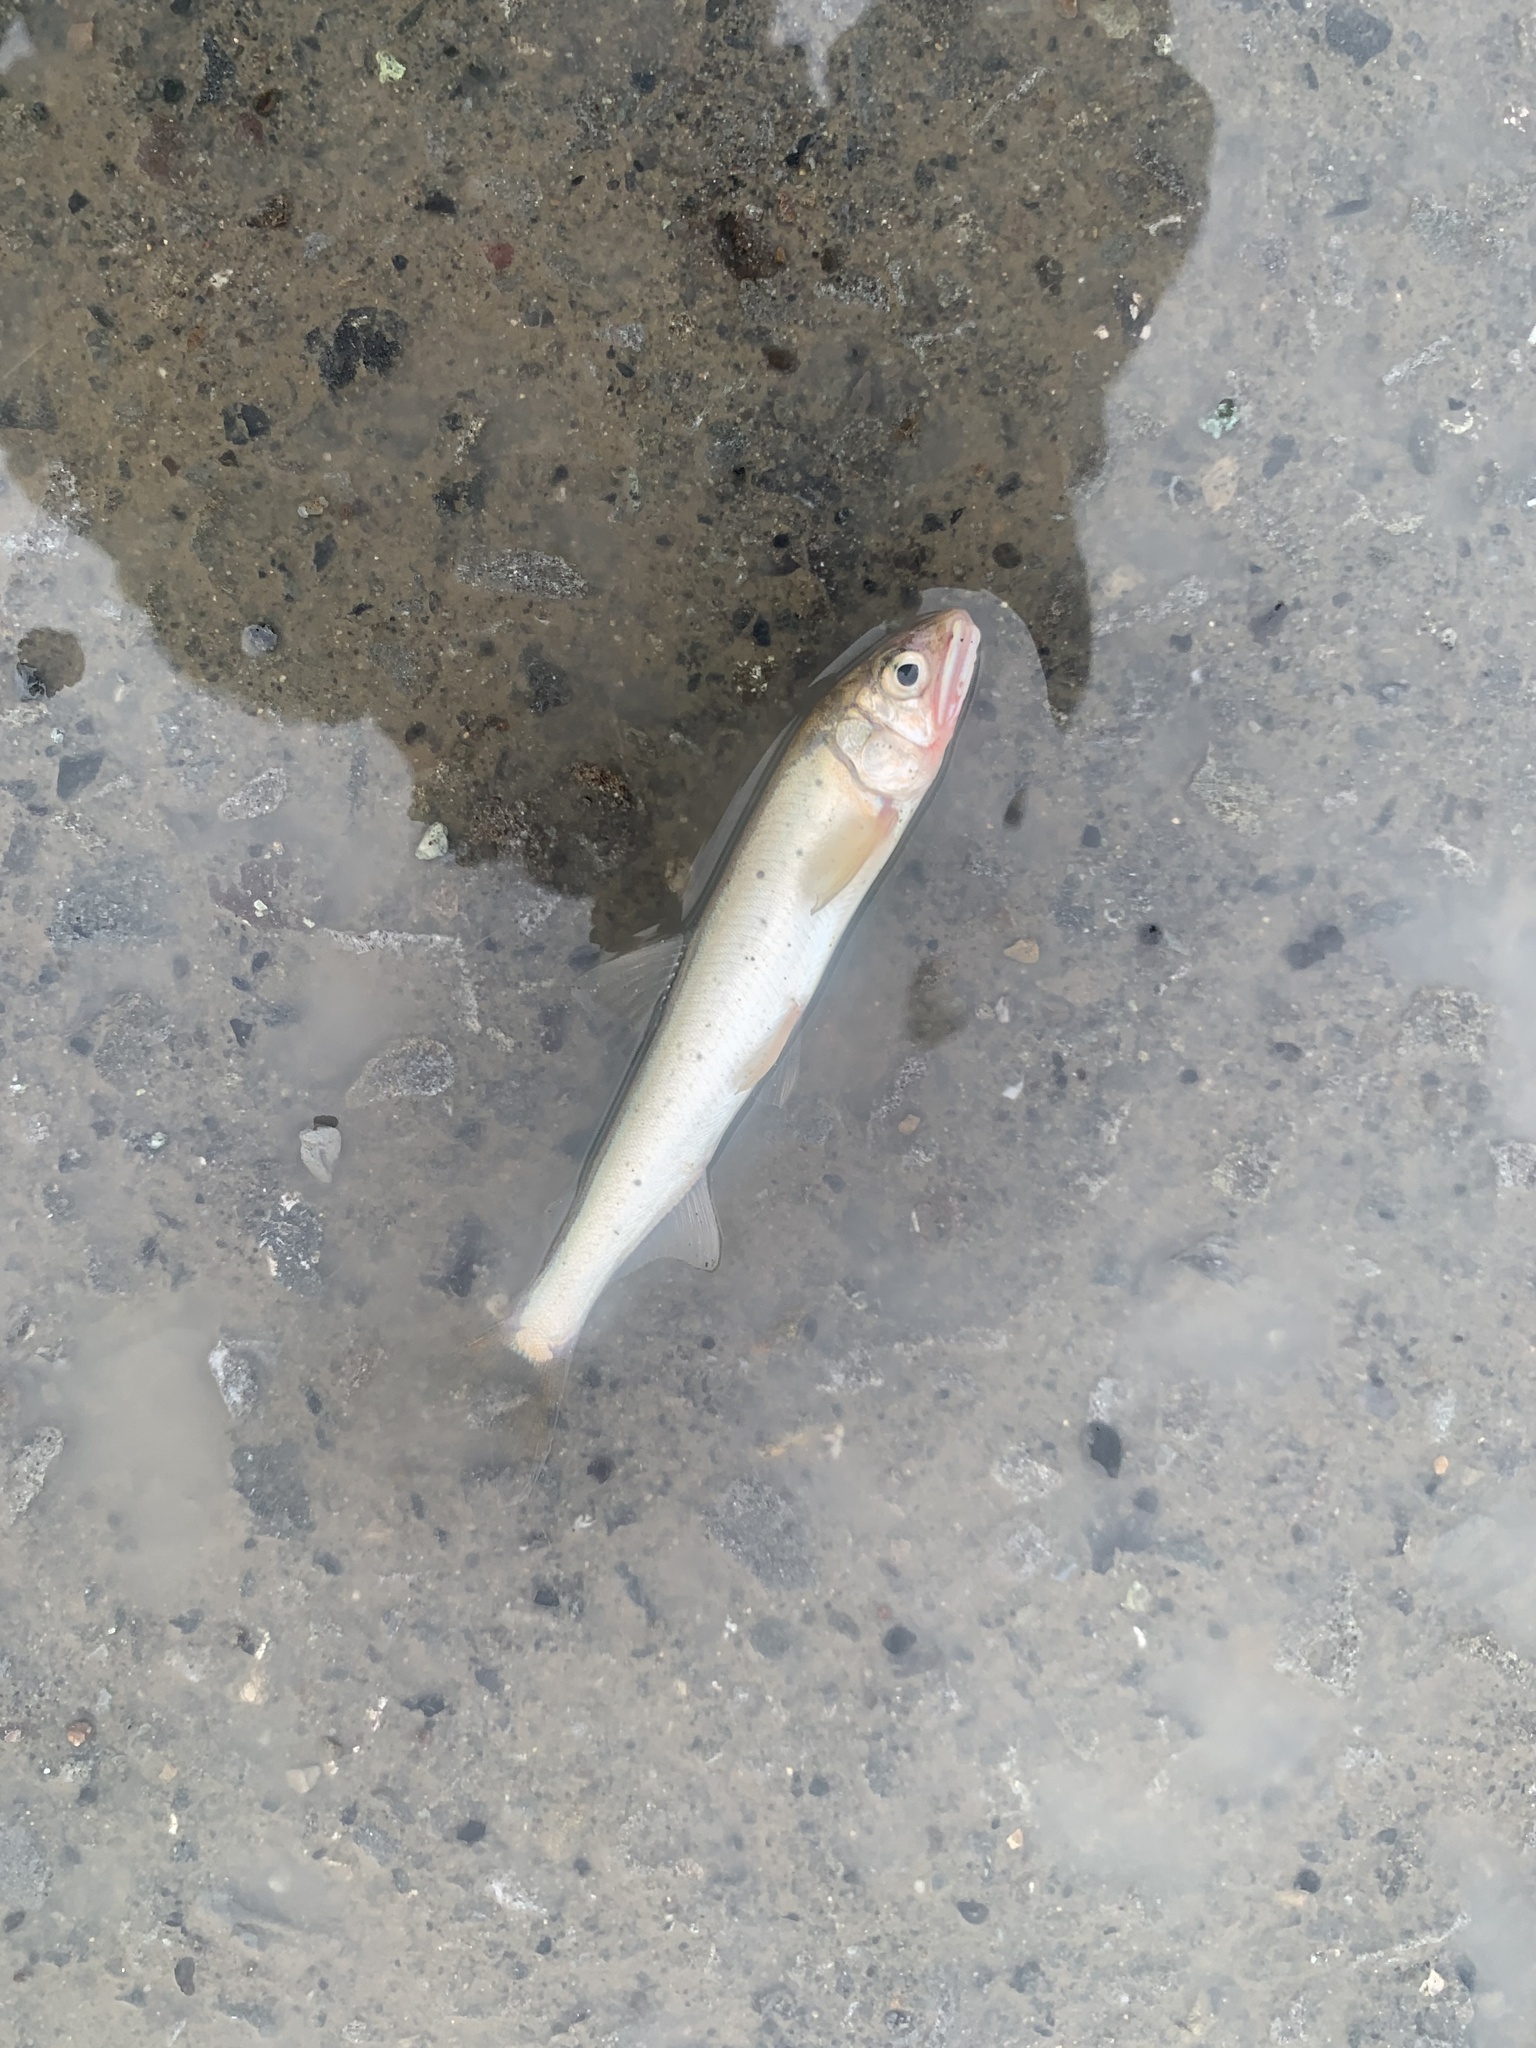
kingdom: Animalia
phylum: Chordata
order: Osmeriformes
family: Plecoglossidae
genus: Plecoglossus
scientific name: Plecoglossus altivelis
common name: Ayu sweetfish
